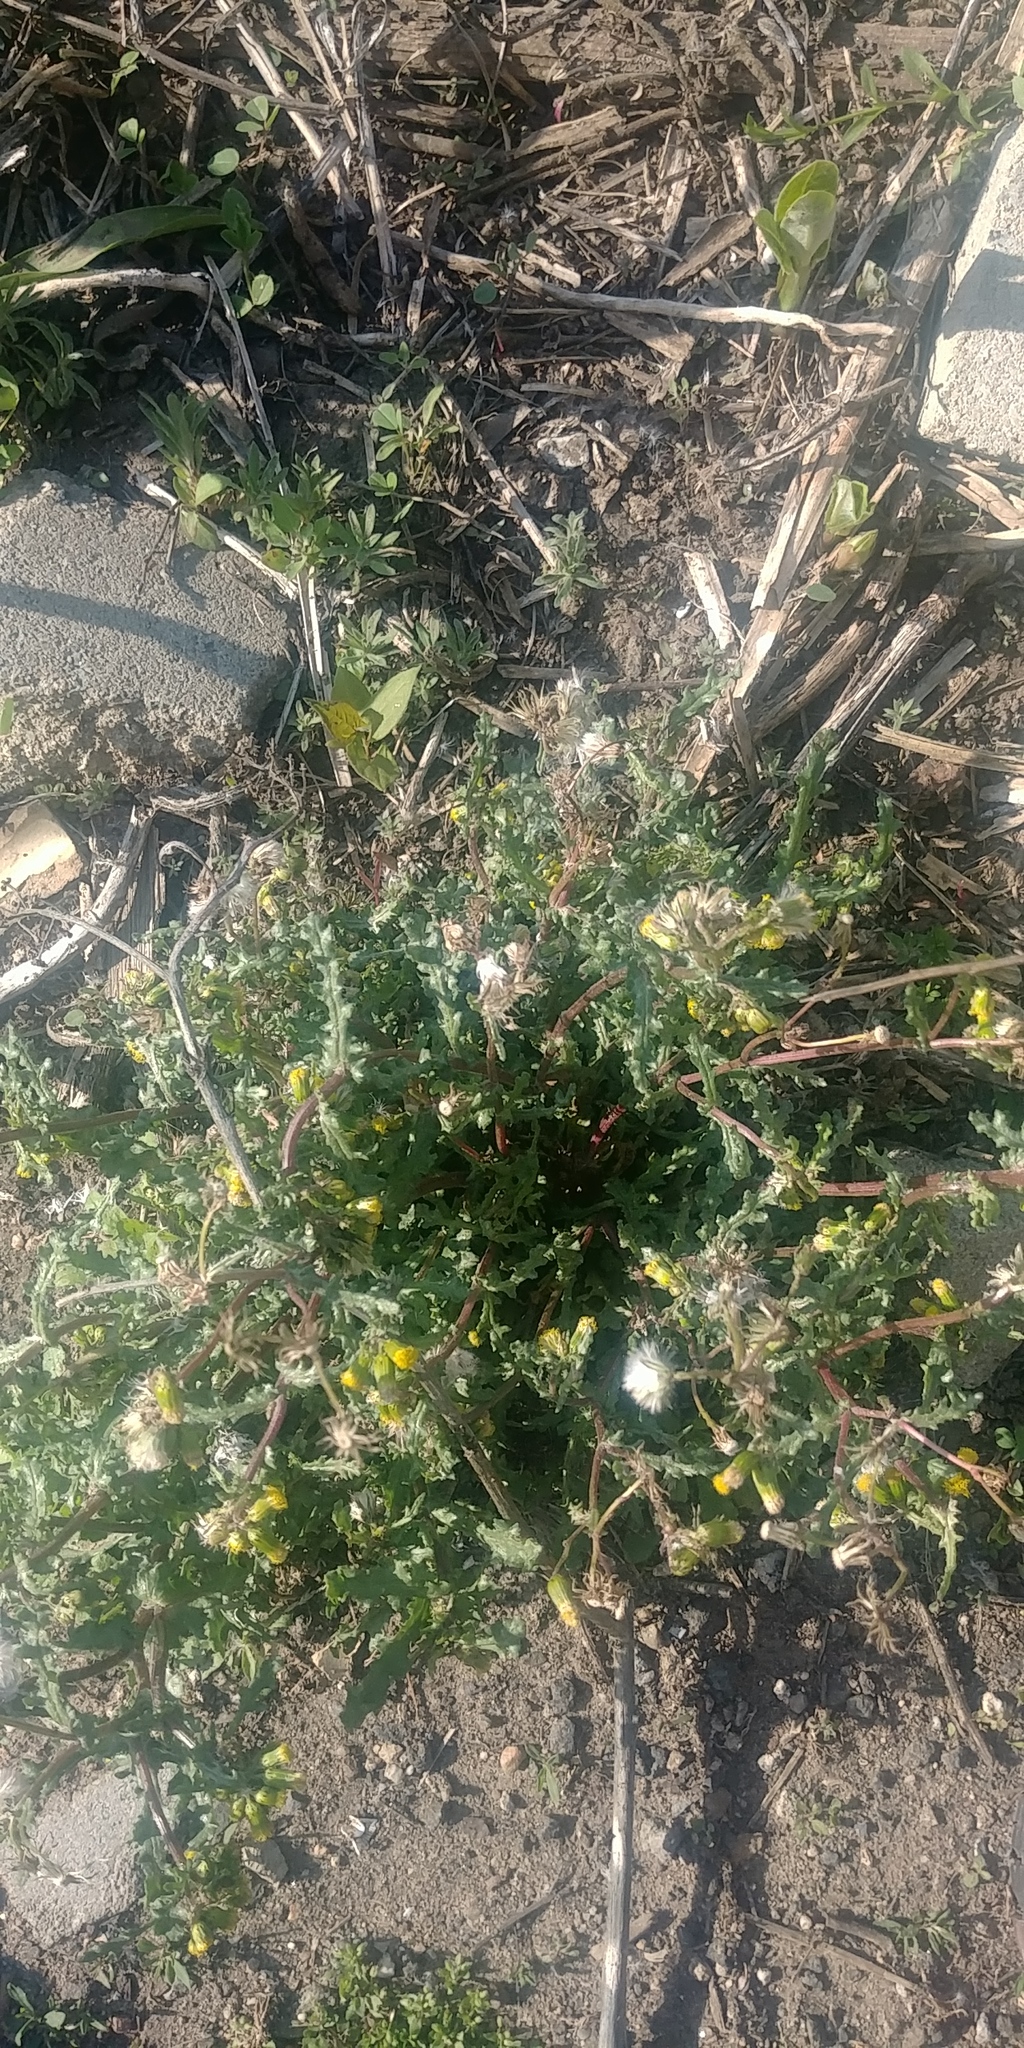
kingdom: Plantae
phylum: Tracheophyta
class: Magnoliopsida
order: Asterales
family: Asteraceae
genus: Senecio
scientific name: Senecio vulgaris
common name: Old-man-in-the-spring
